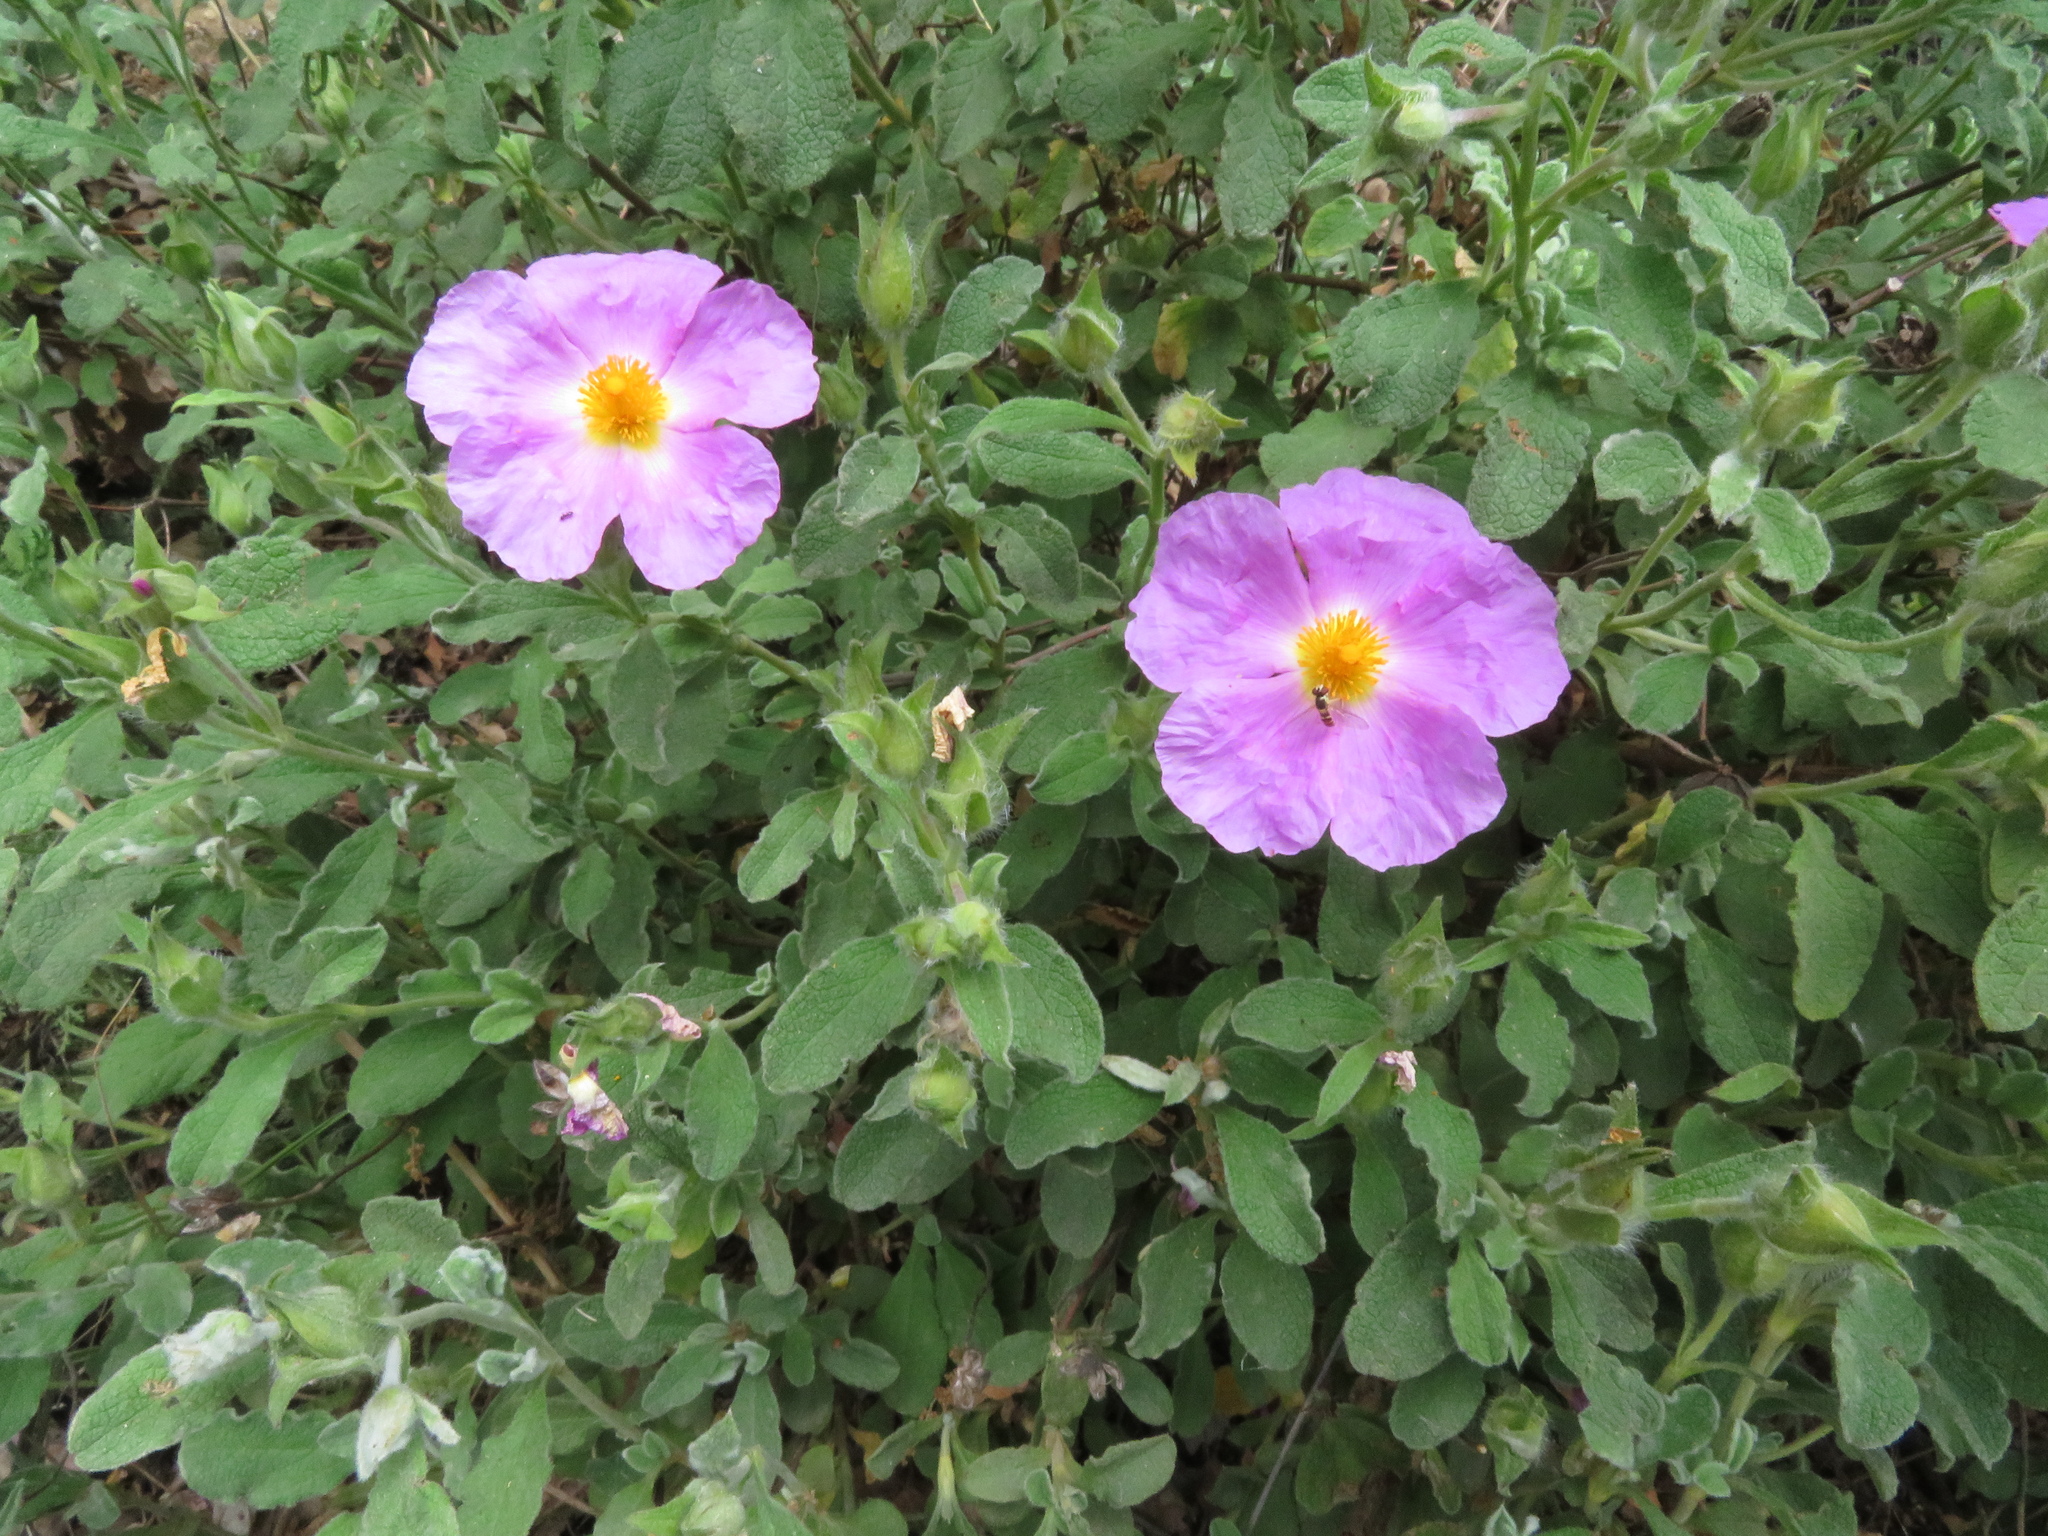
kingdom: Plantae
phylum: Tracheophyta
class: Magnoliopsida
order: Malvales
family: Cistaceae
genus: Cistus
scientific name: Cistus creticus
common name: Cretan rockrose
